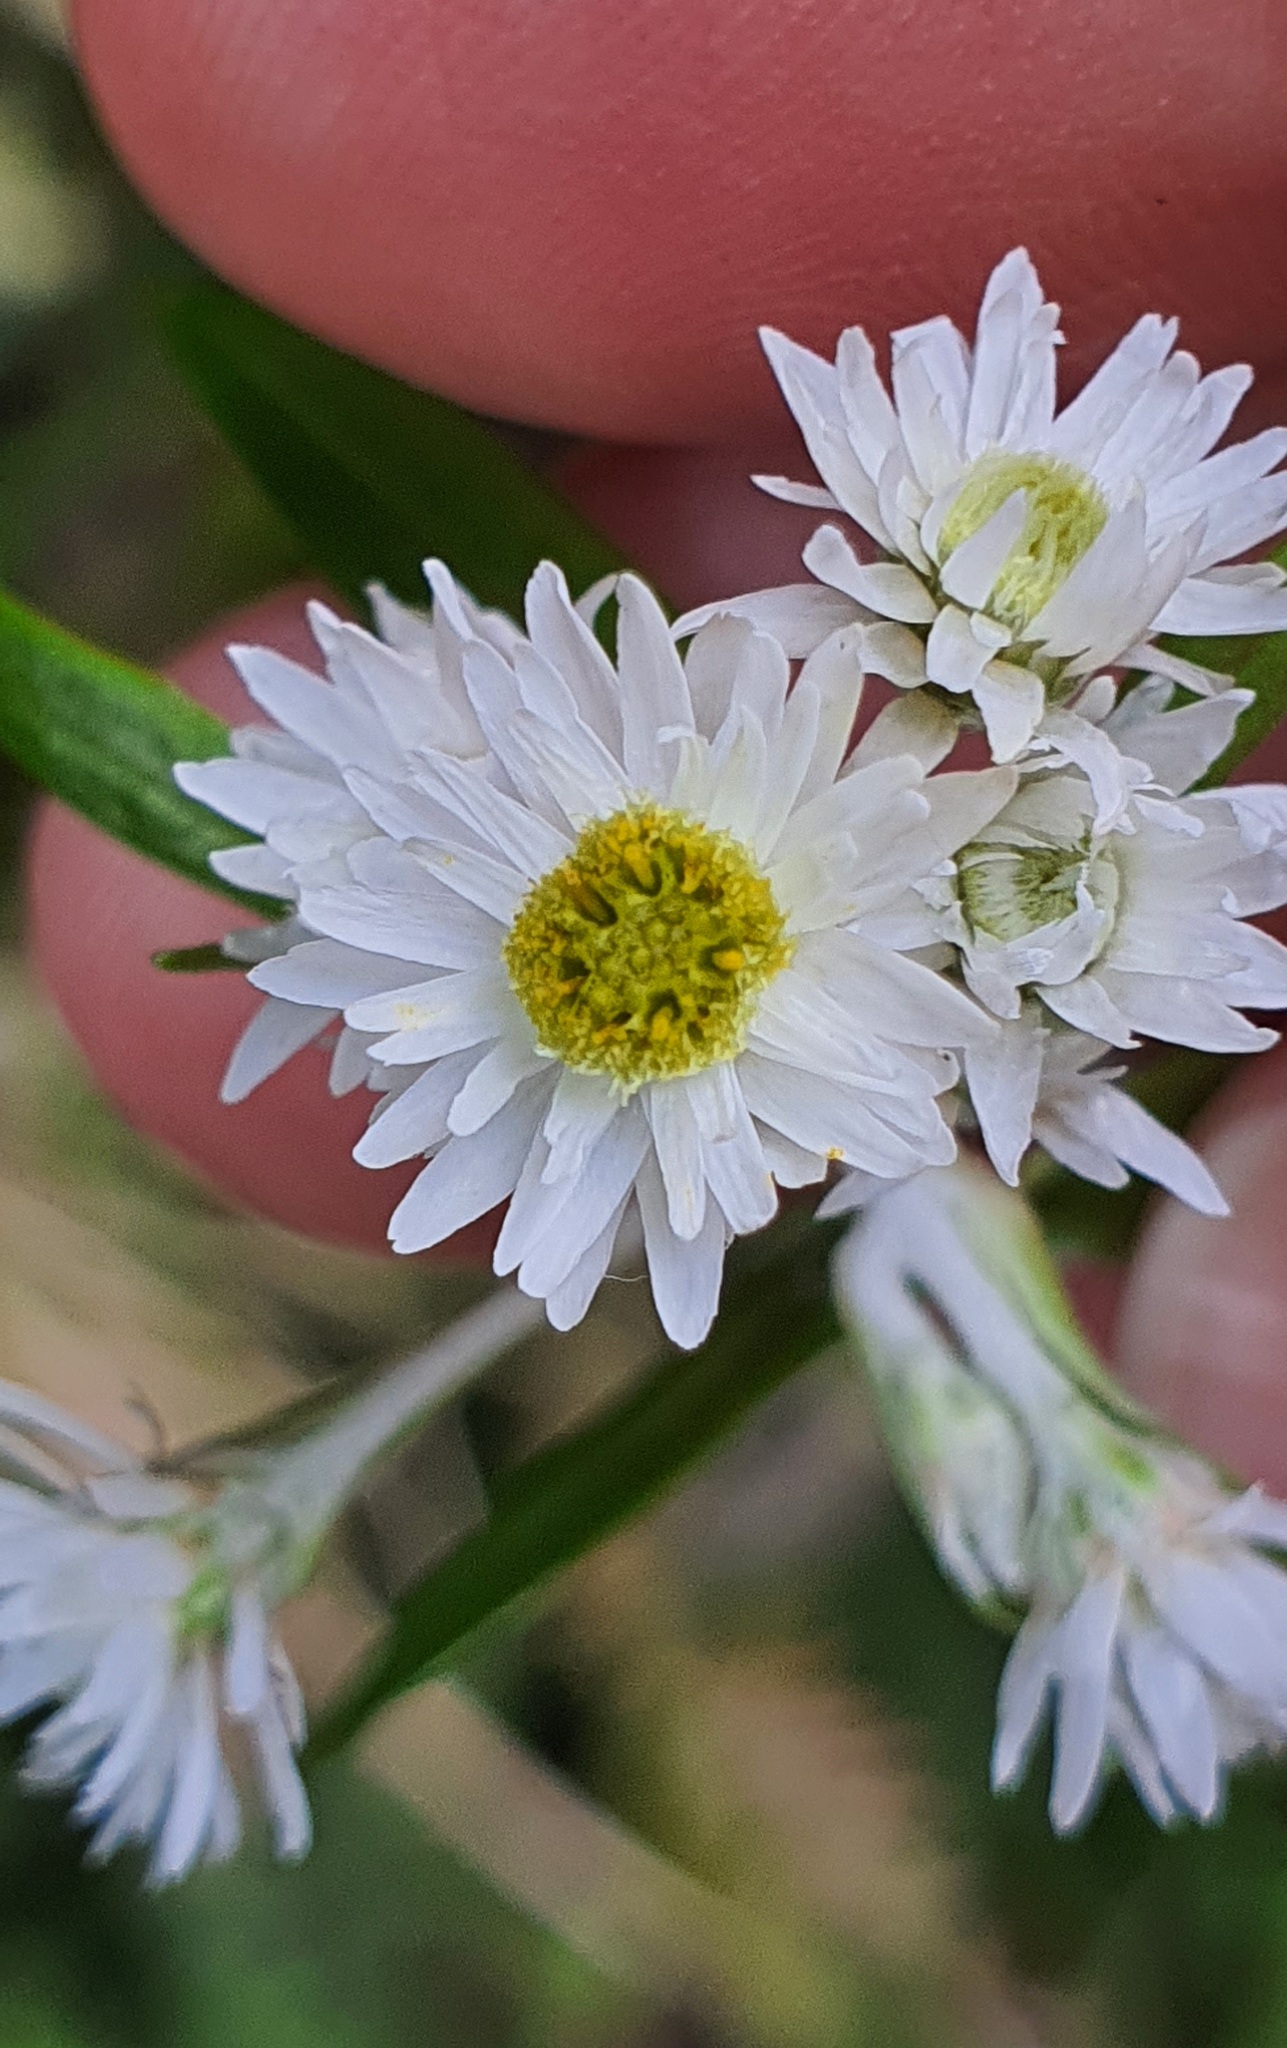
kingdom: Plantae
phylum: Tracheophyta
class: Magnoliopsida
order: Asterales
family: Asteraceae
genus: Anaphalioides
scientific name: Anaphalioides trinervis
